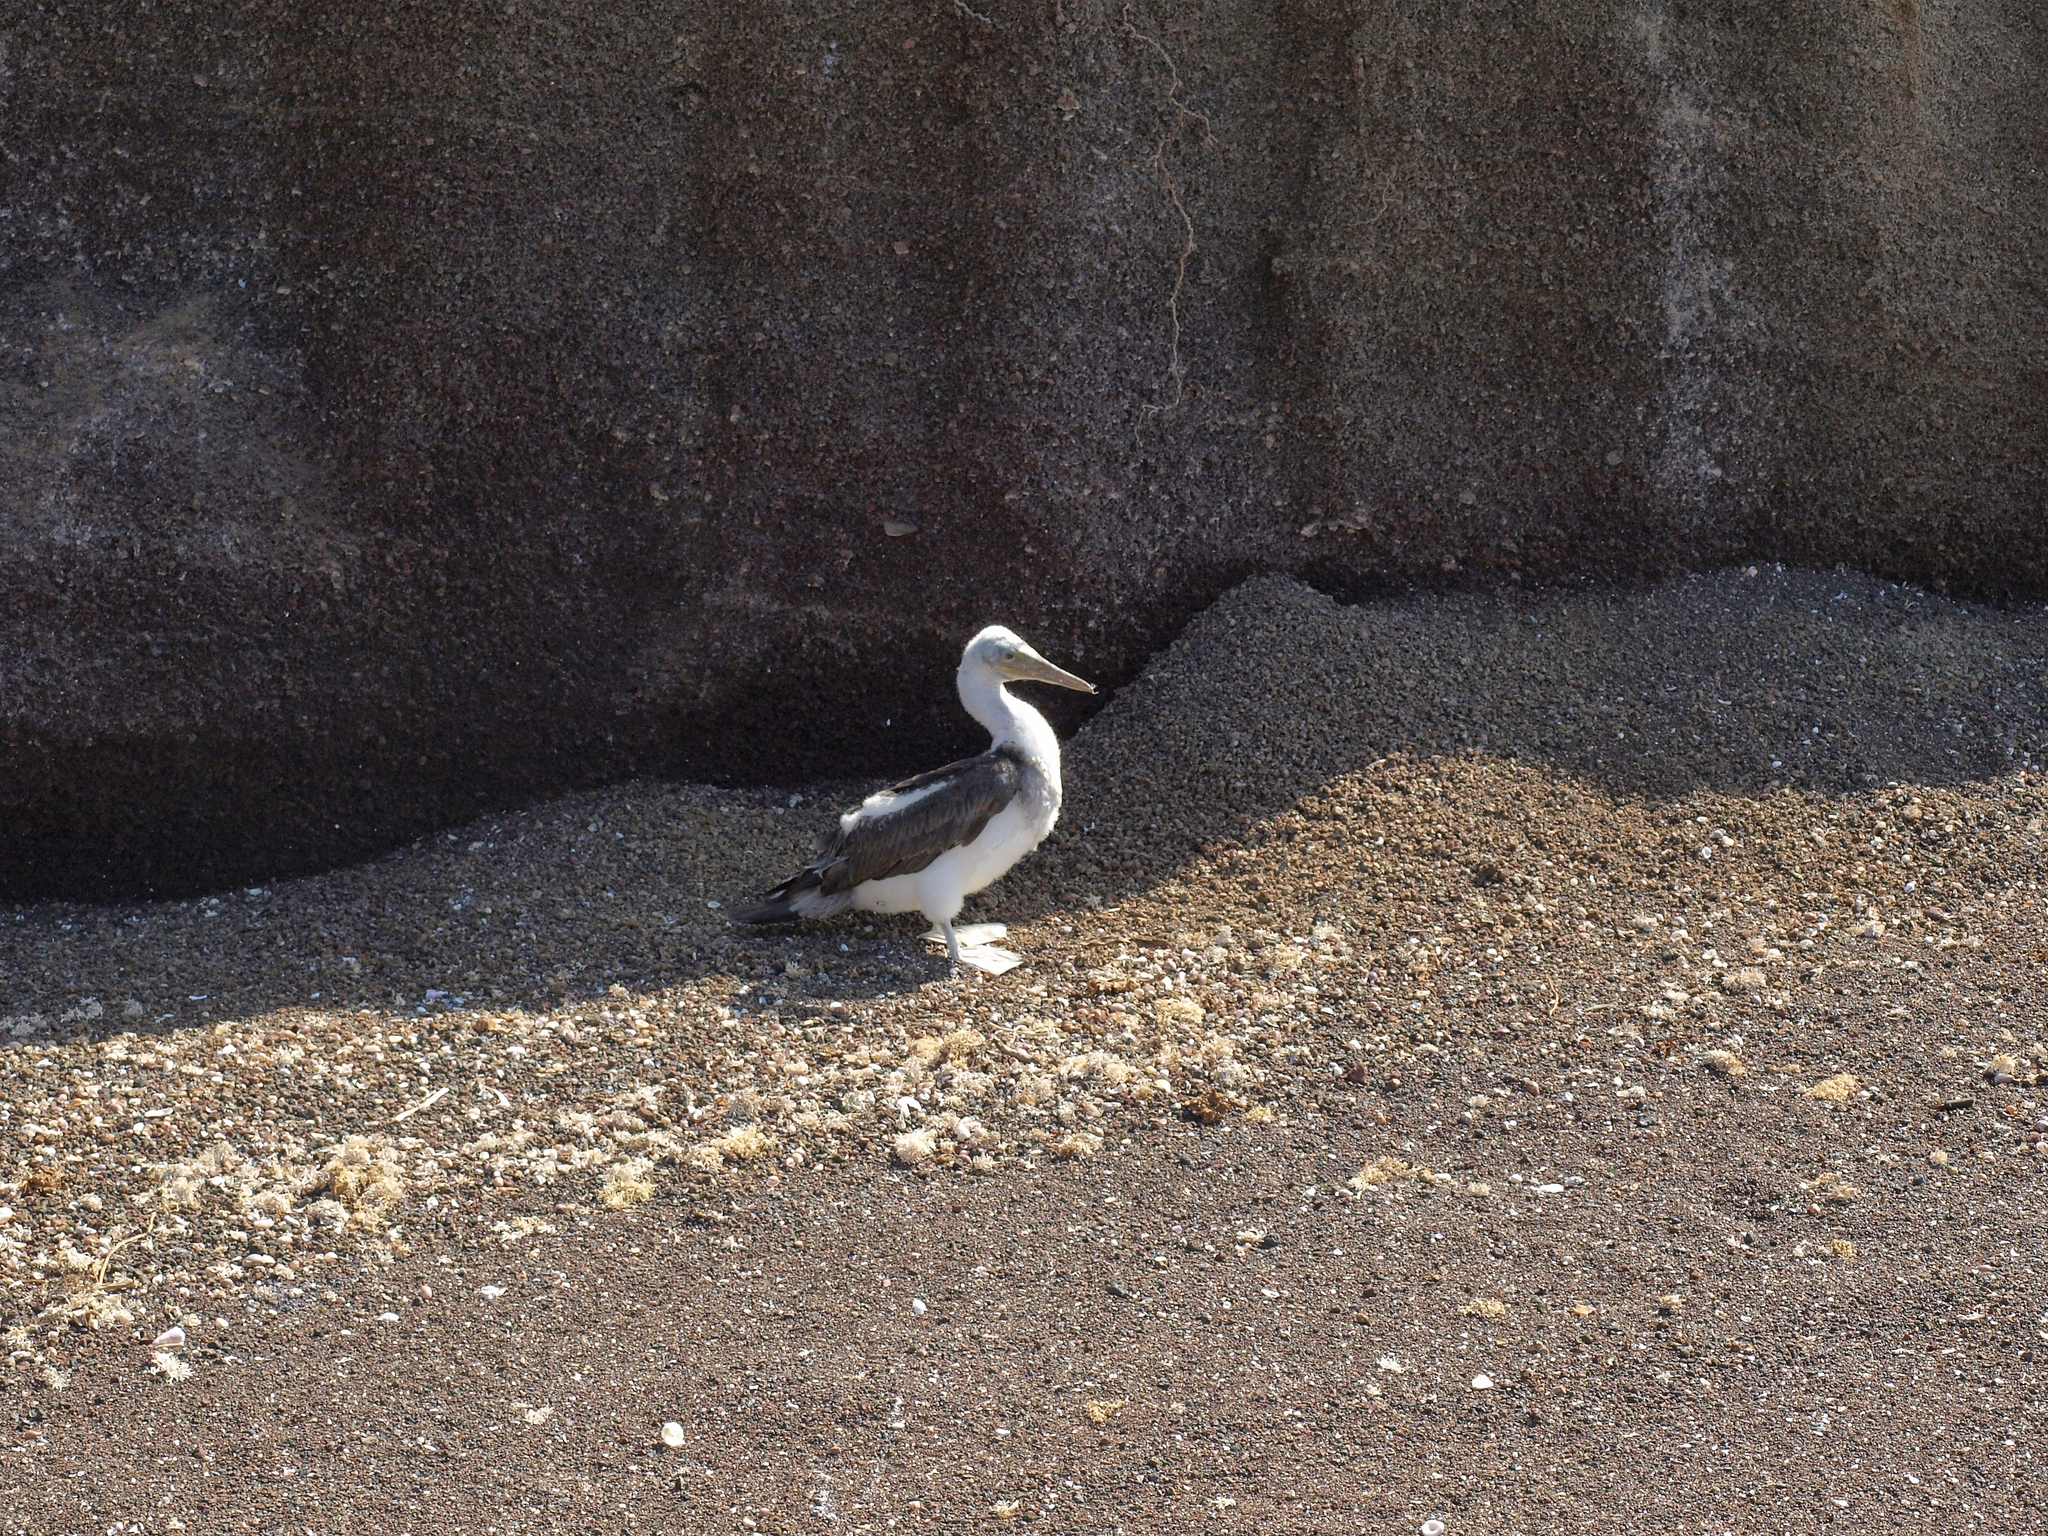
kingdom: Animalia
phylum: Chordata
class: Aves
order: Suliformes
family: Sulidae
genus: Sula
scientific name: Sula granti
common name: Nazca booby
